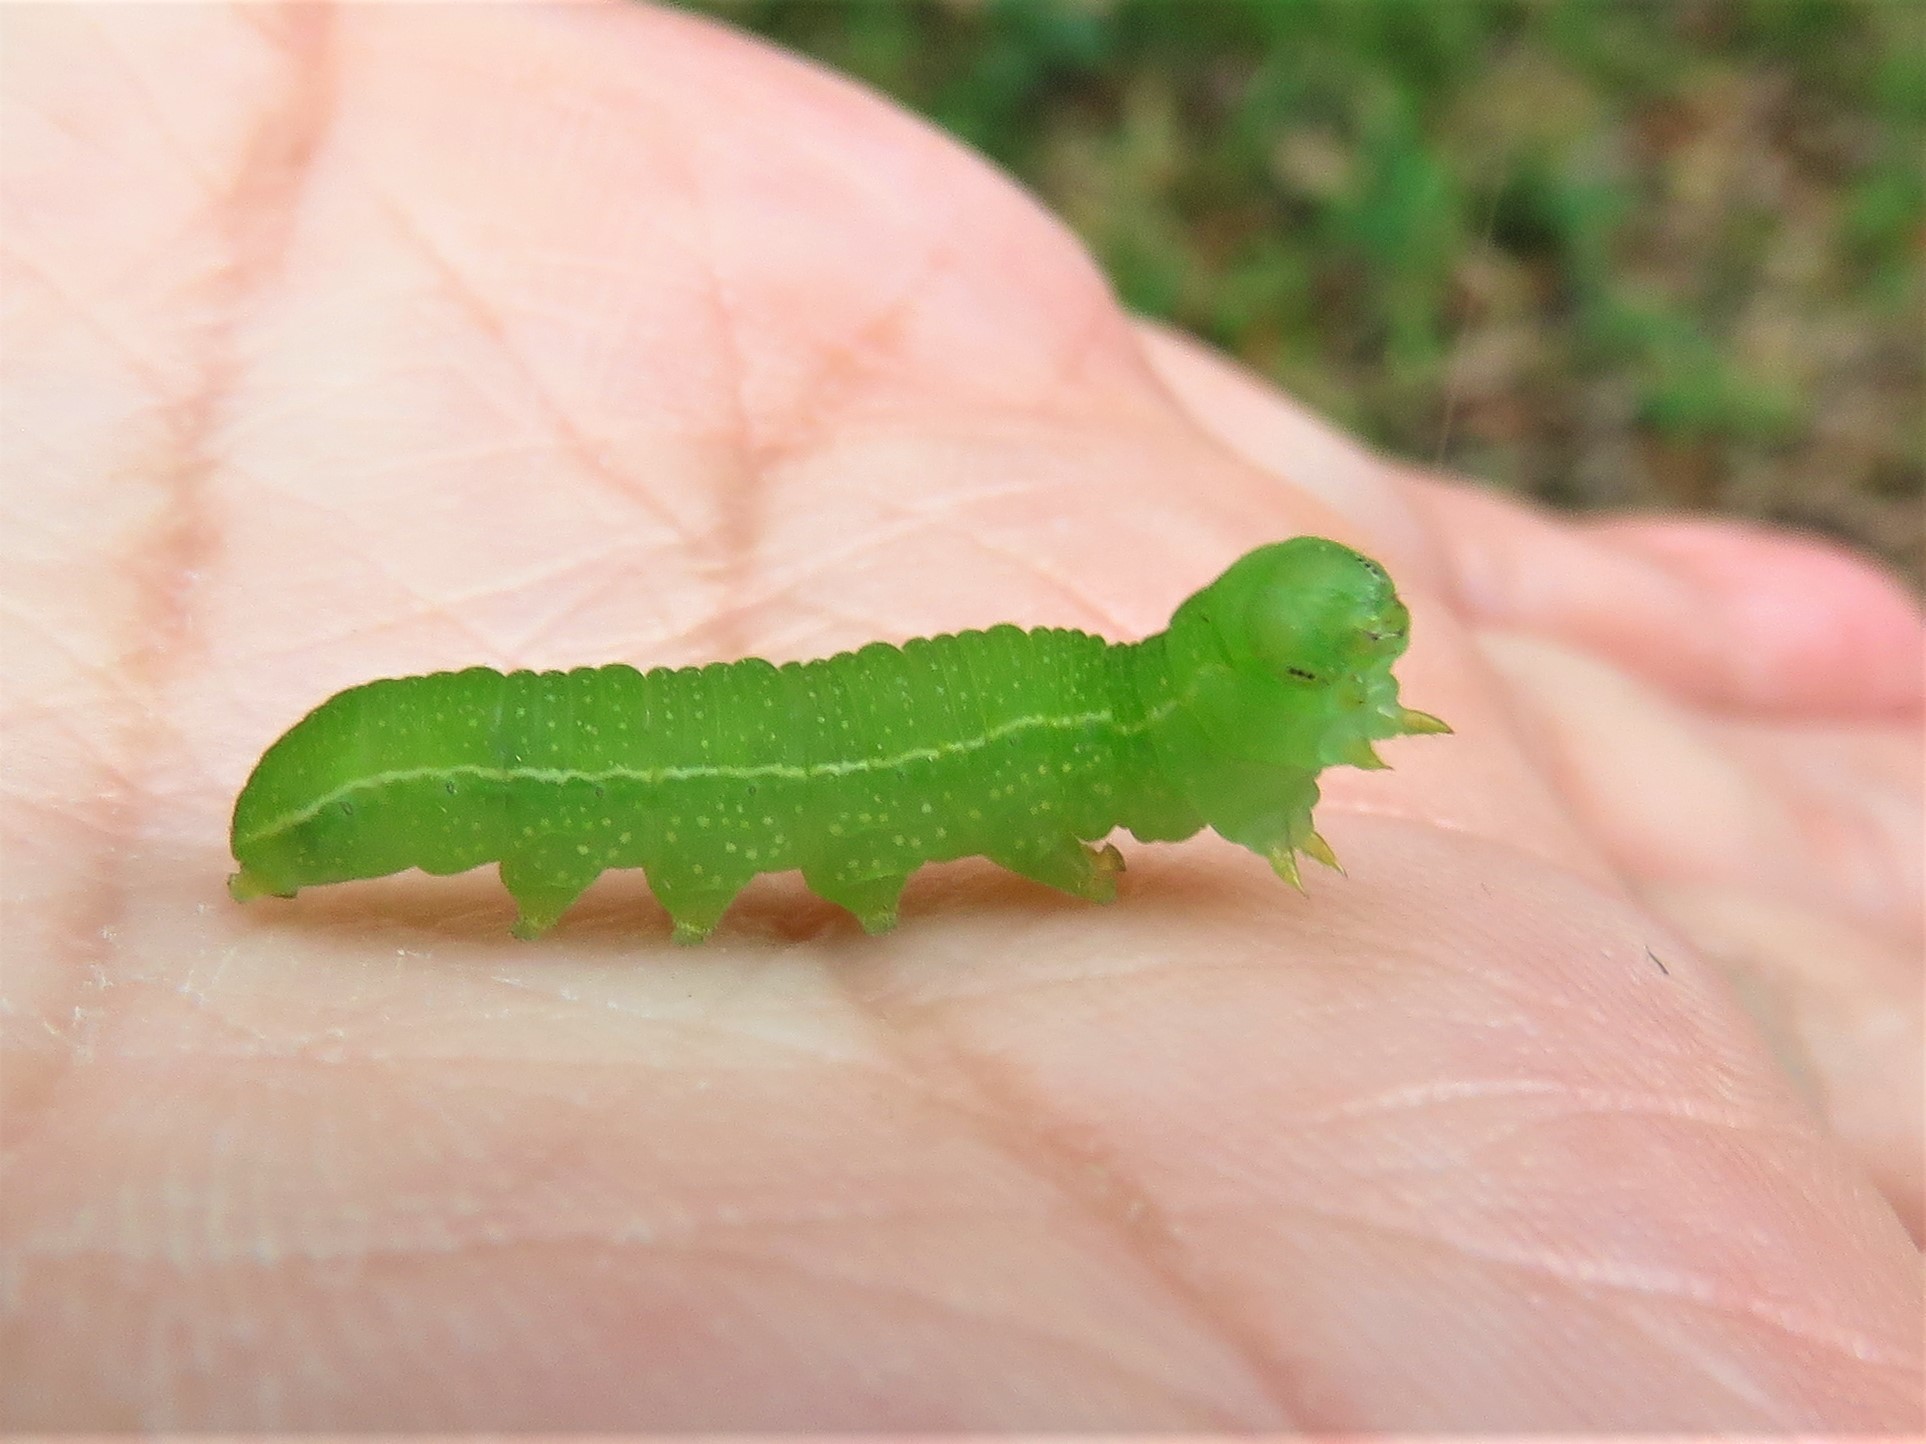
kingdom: Animalia
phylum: Arthropoda
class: Insecta
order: Lepidoptera
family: Nymphalidae
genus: Libytheana
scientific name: Libytheana carinenta
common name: American snout
